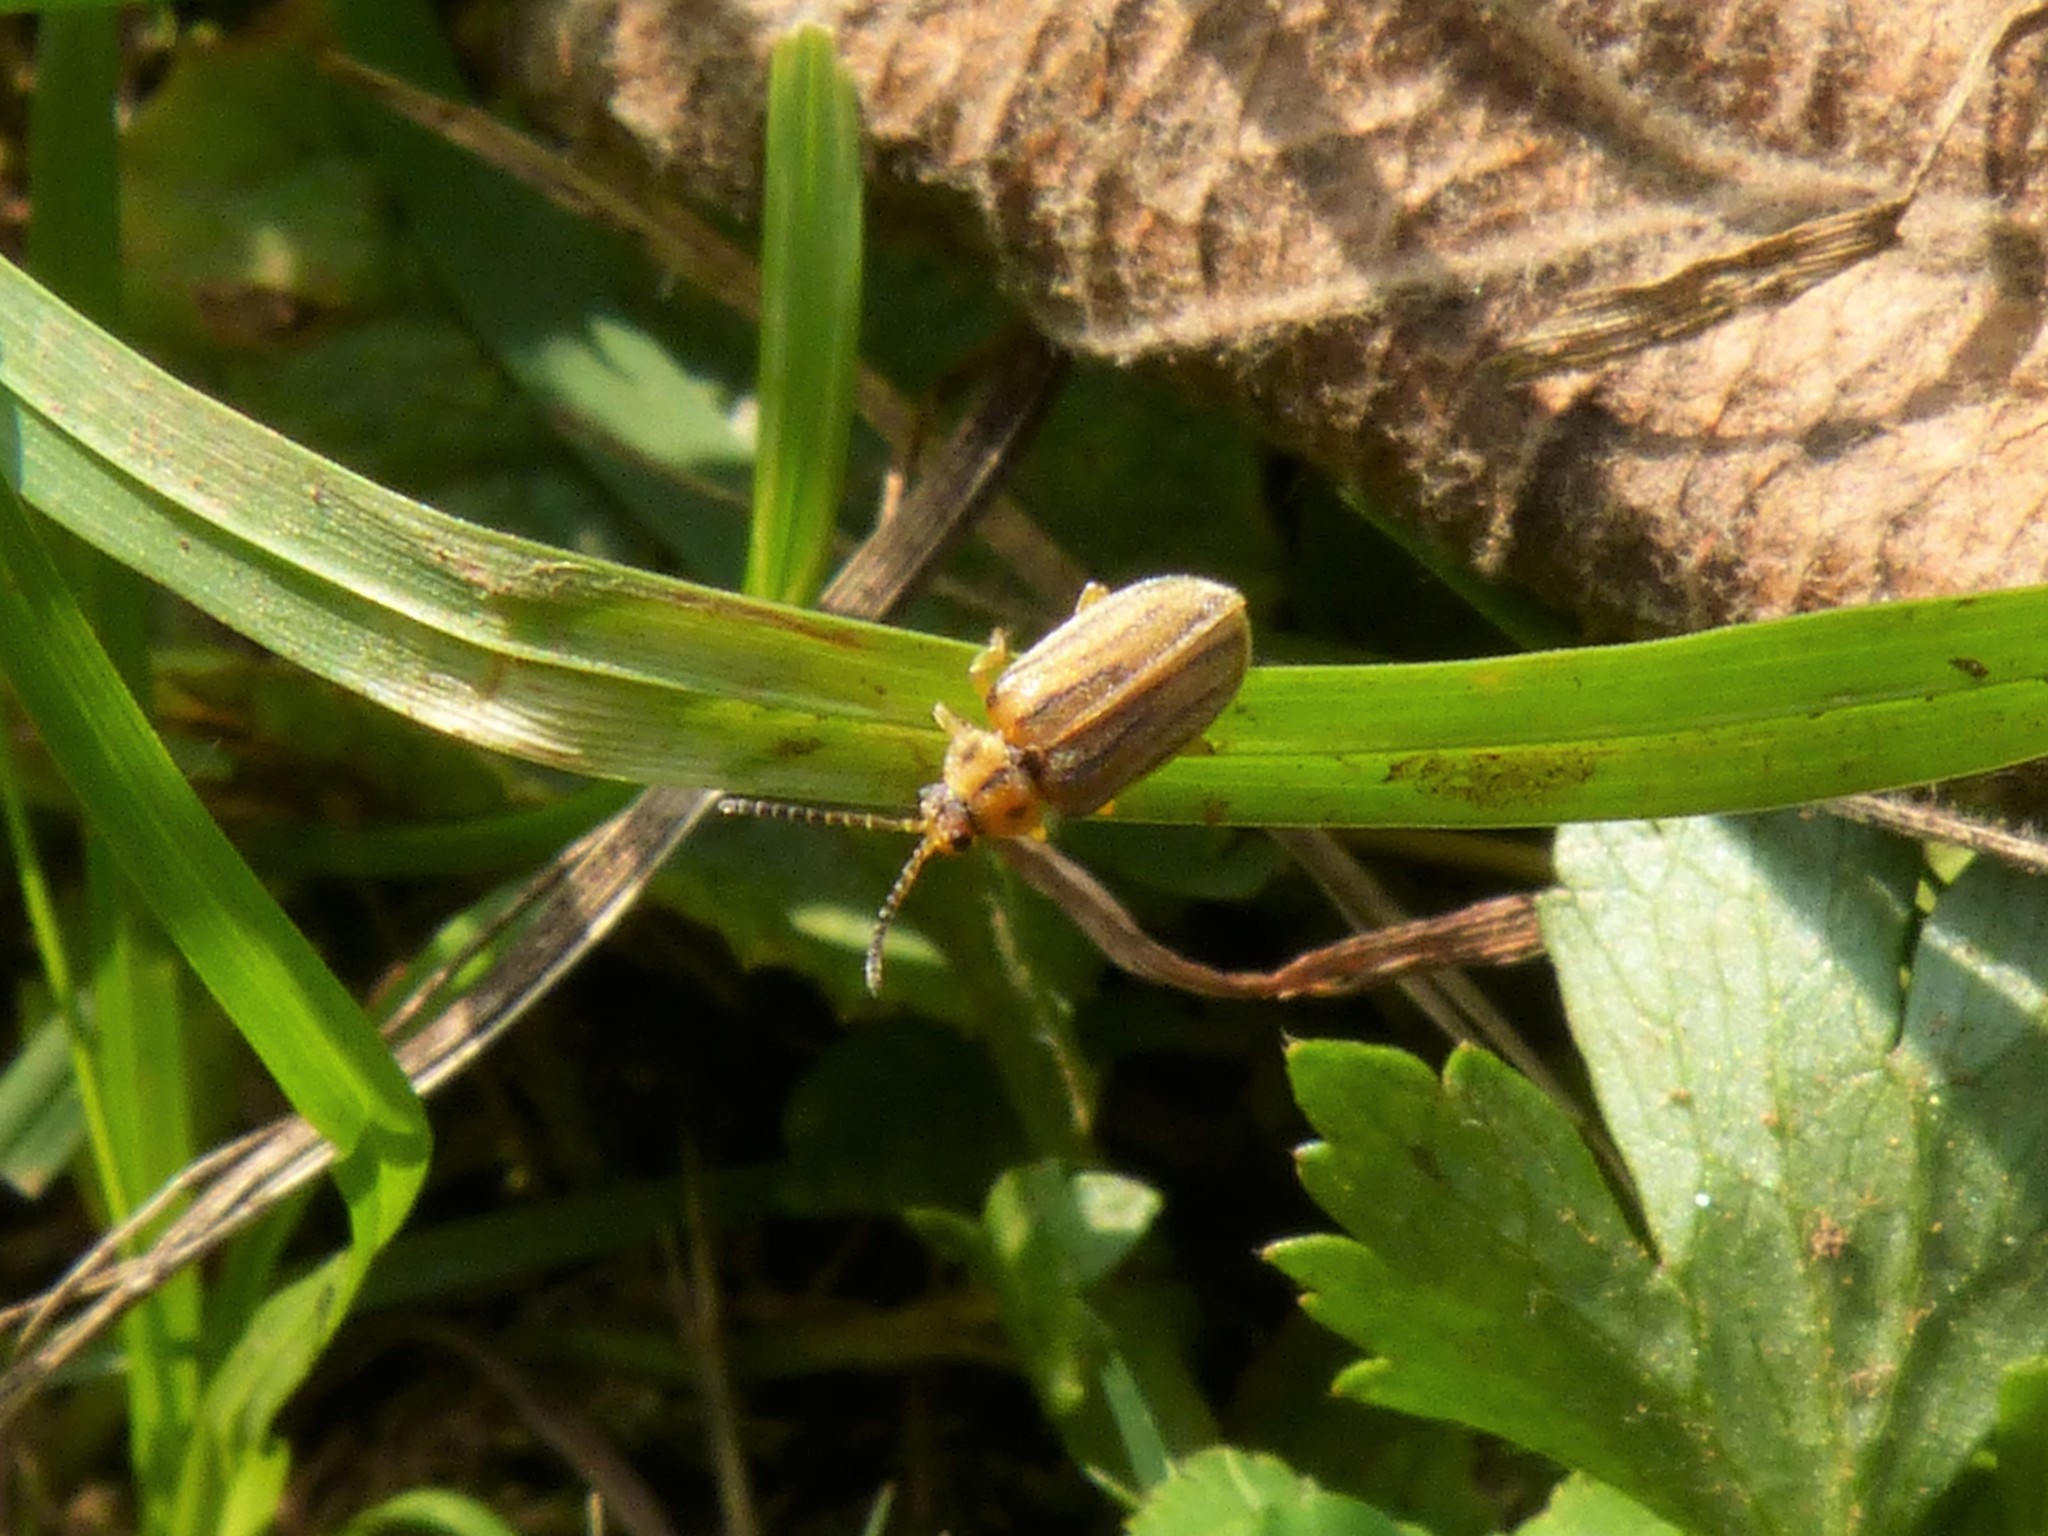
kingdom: Animalia
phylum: Arthropoda
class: Insecta
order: Coleoptera
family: Chrysomelidae
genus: Ophraella
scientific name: Ophraella communa
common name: Ragweed leaf beetle
